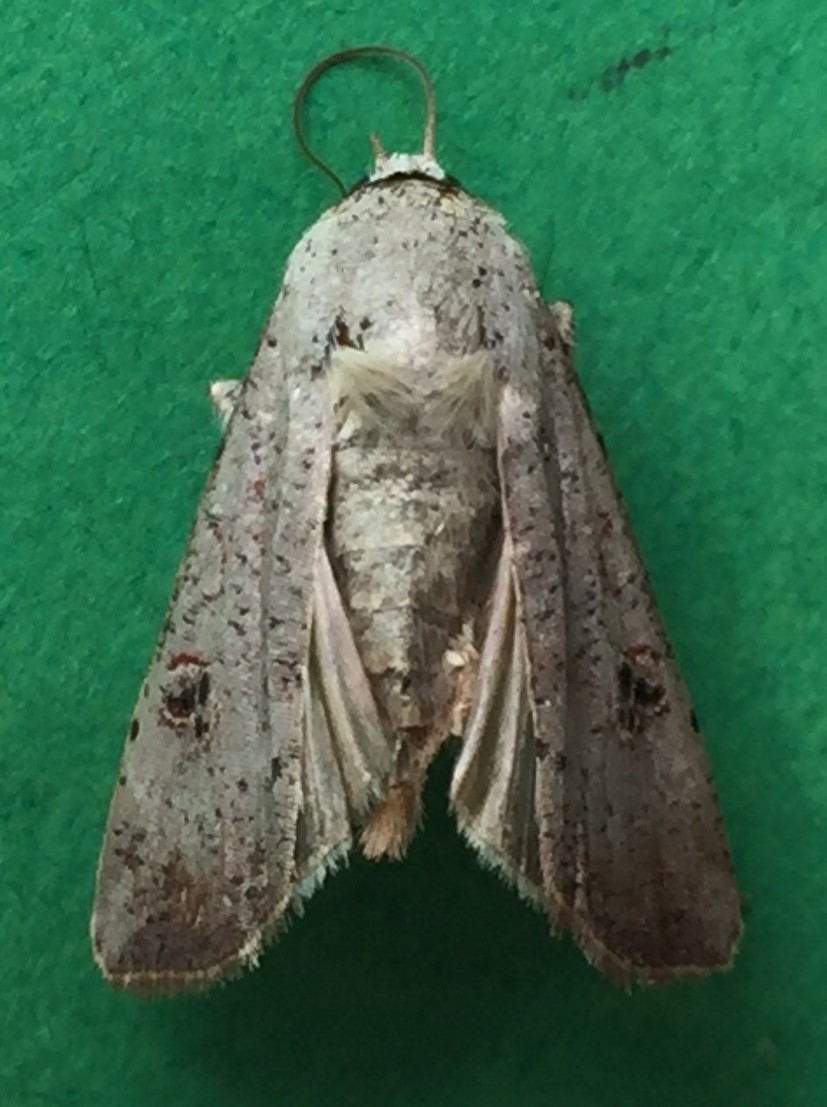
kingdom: Animalia
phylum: Arthropoda
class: Insecta
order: Lepidoptera
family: Noctuidae
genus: Anicla
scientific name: Anicla infecta
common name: Green cutworm
